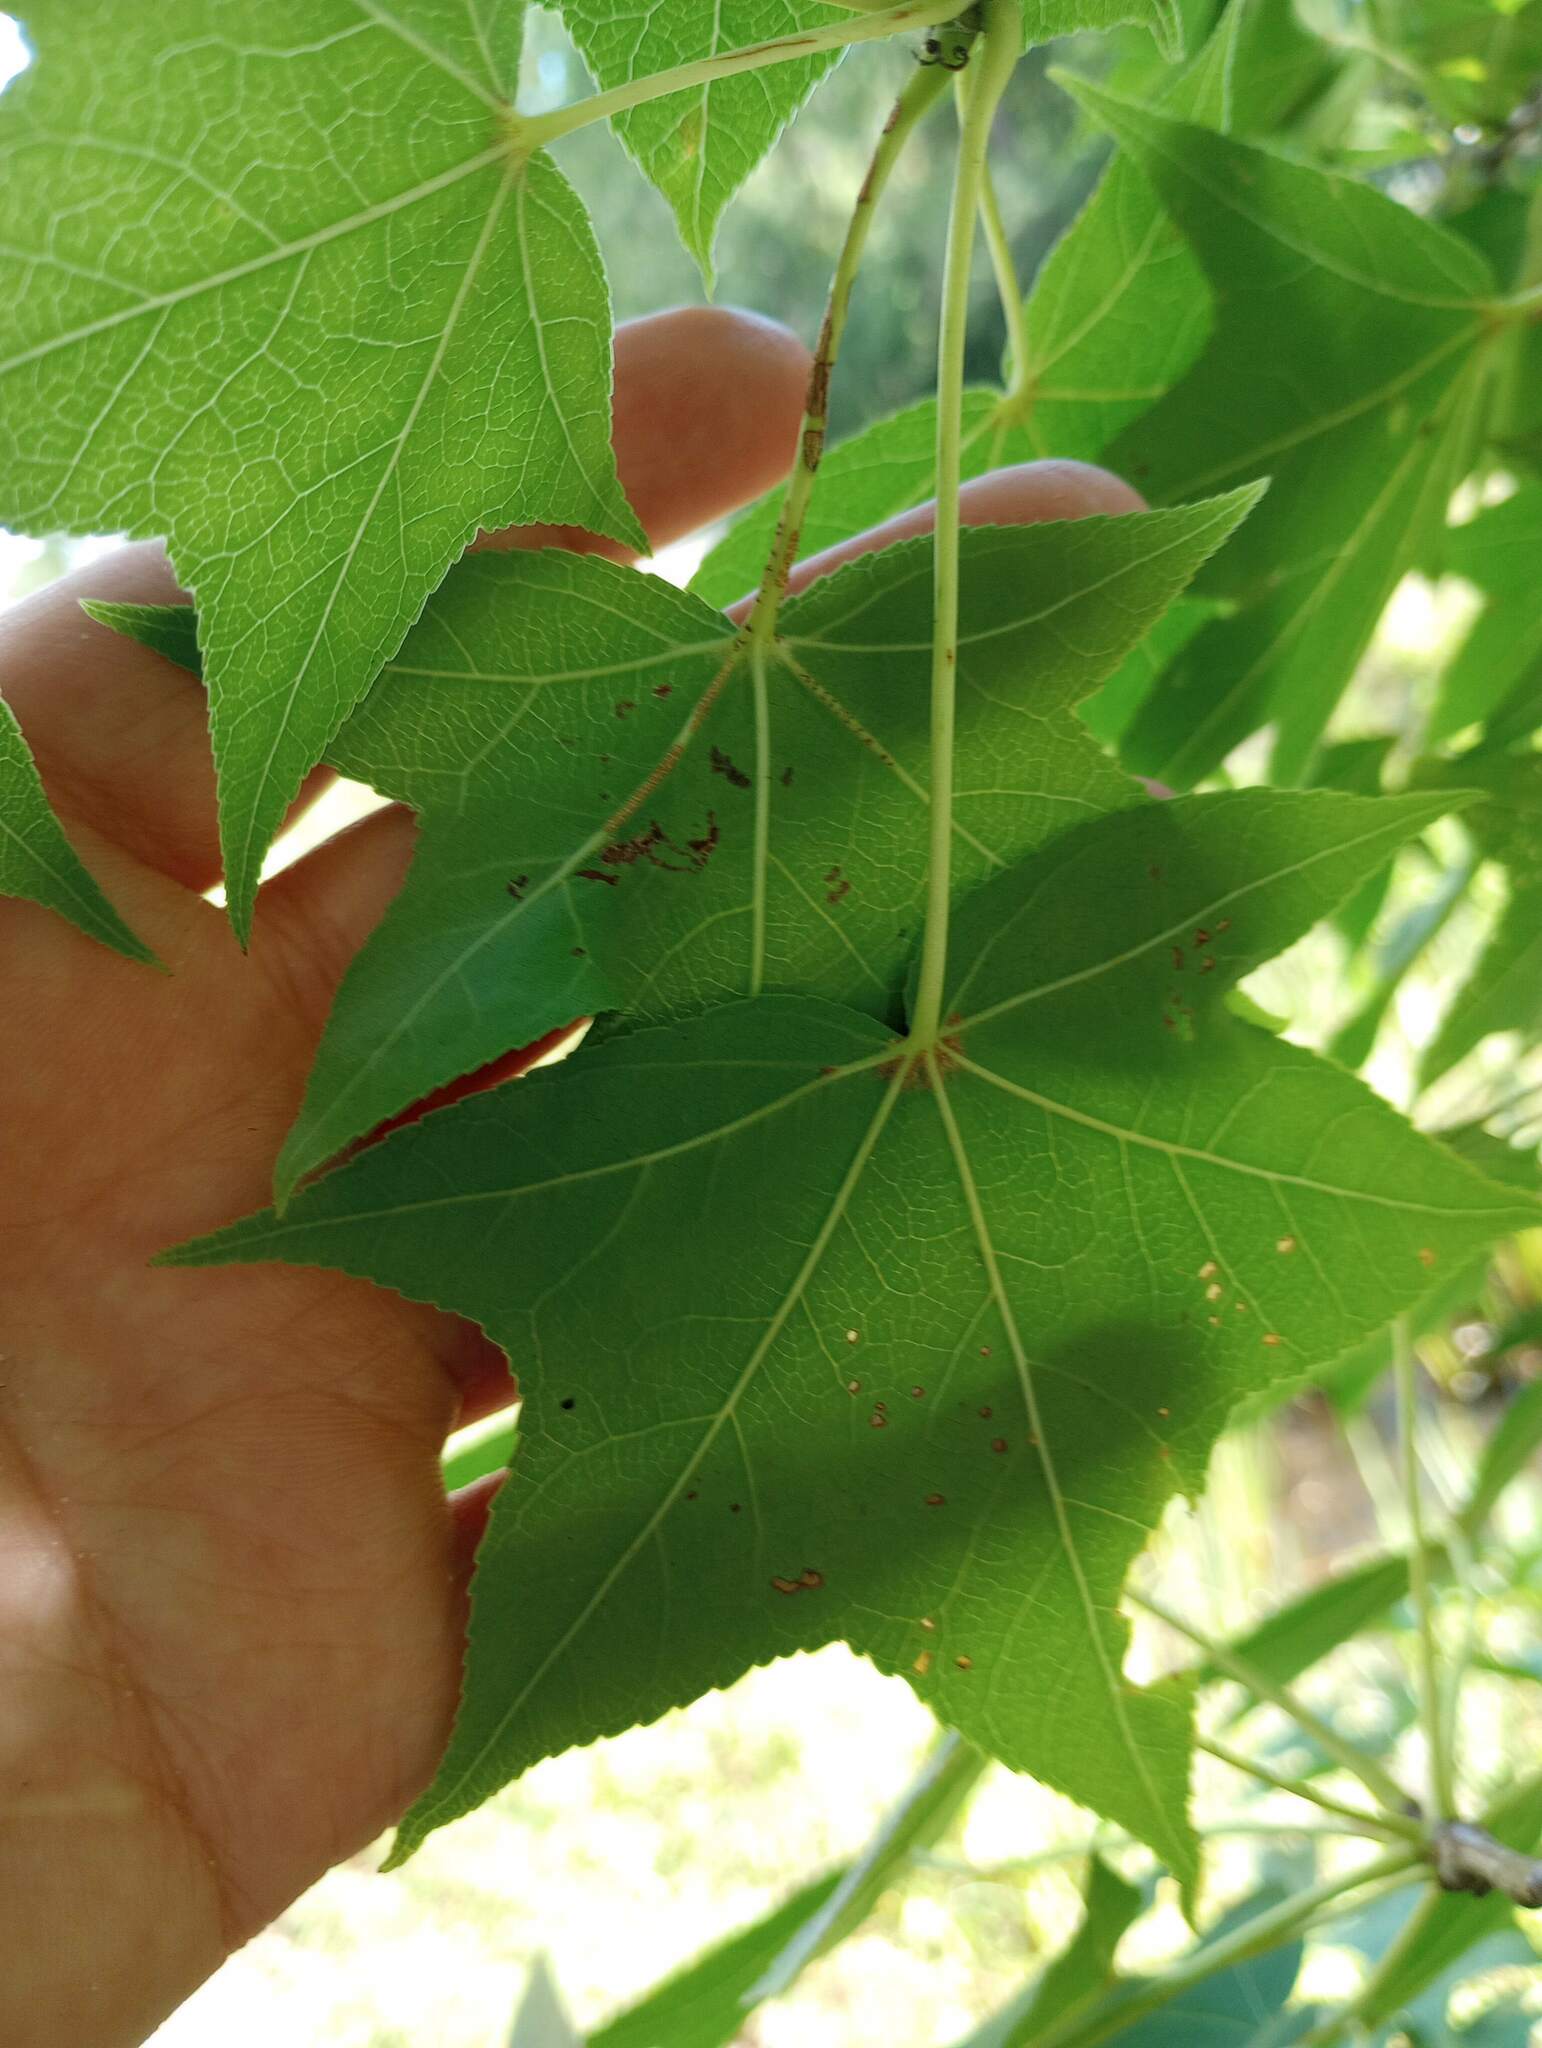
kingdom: Plantae
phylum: Tracheophyta
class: Magnoliopsida
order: Saxifragales
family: Altingiaceae
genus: Liquidambar
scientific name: Liquidambar styraciflua
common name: Sweet gum
